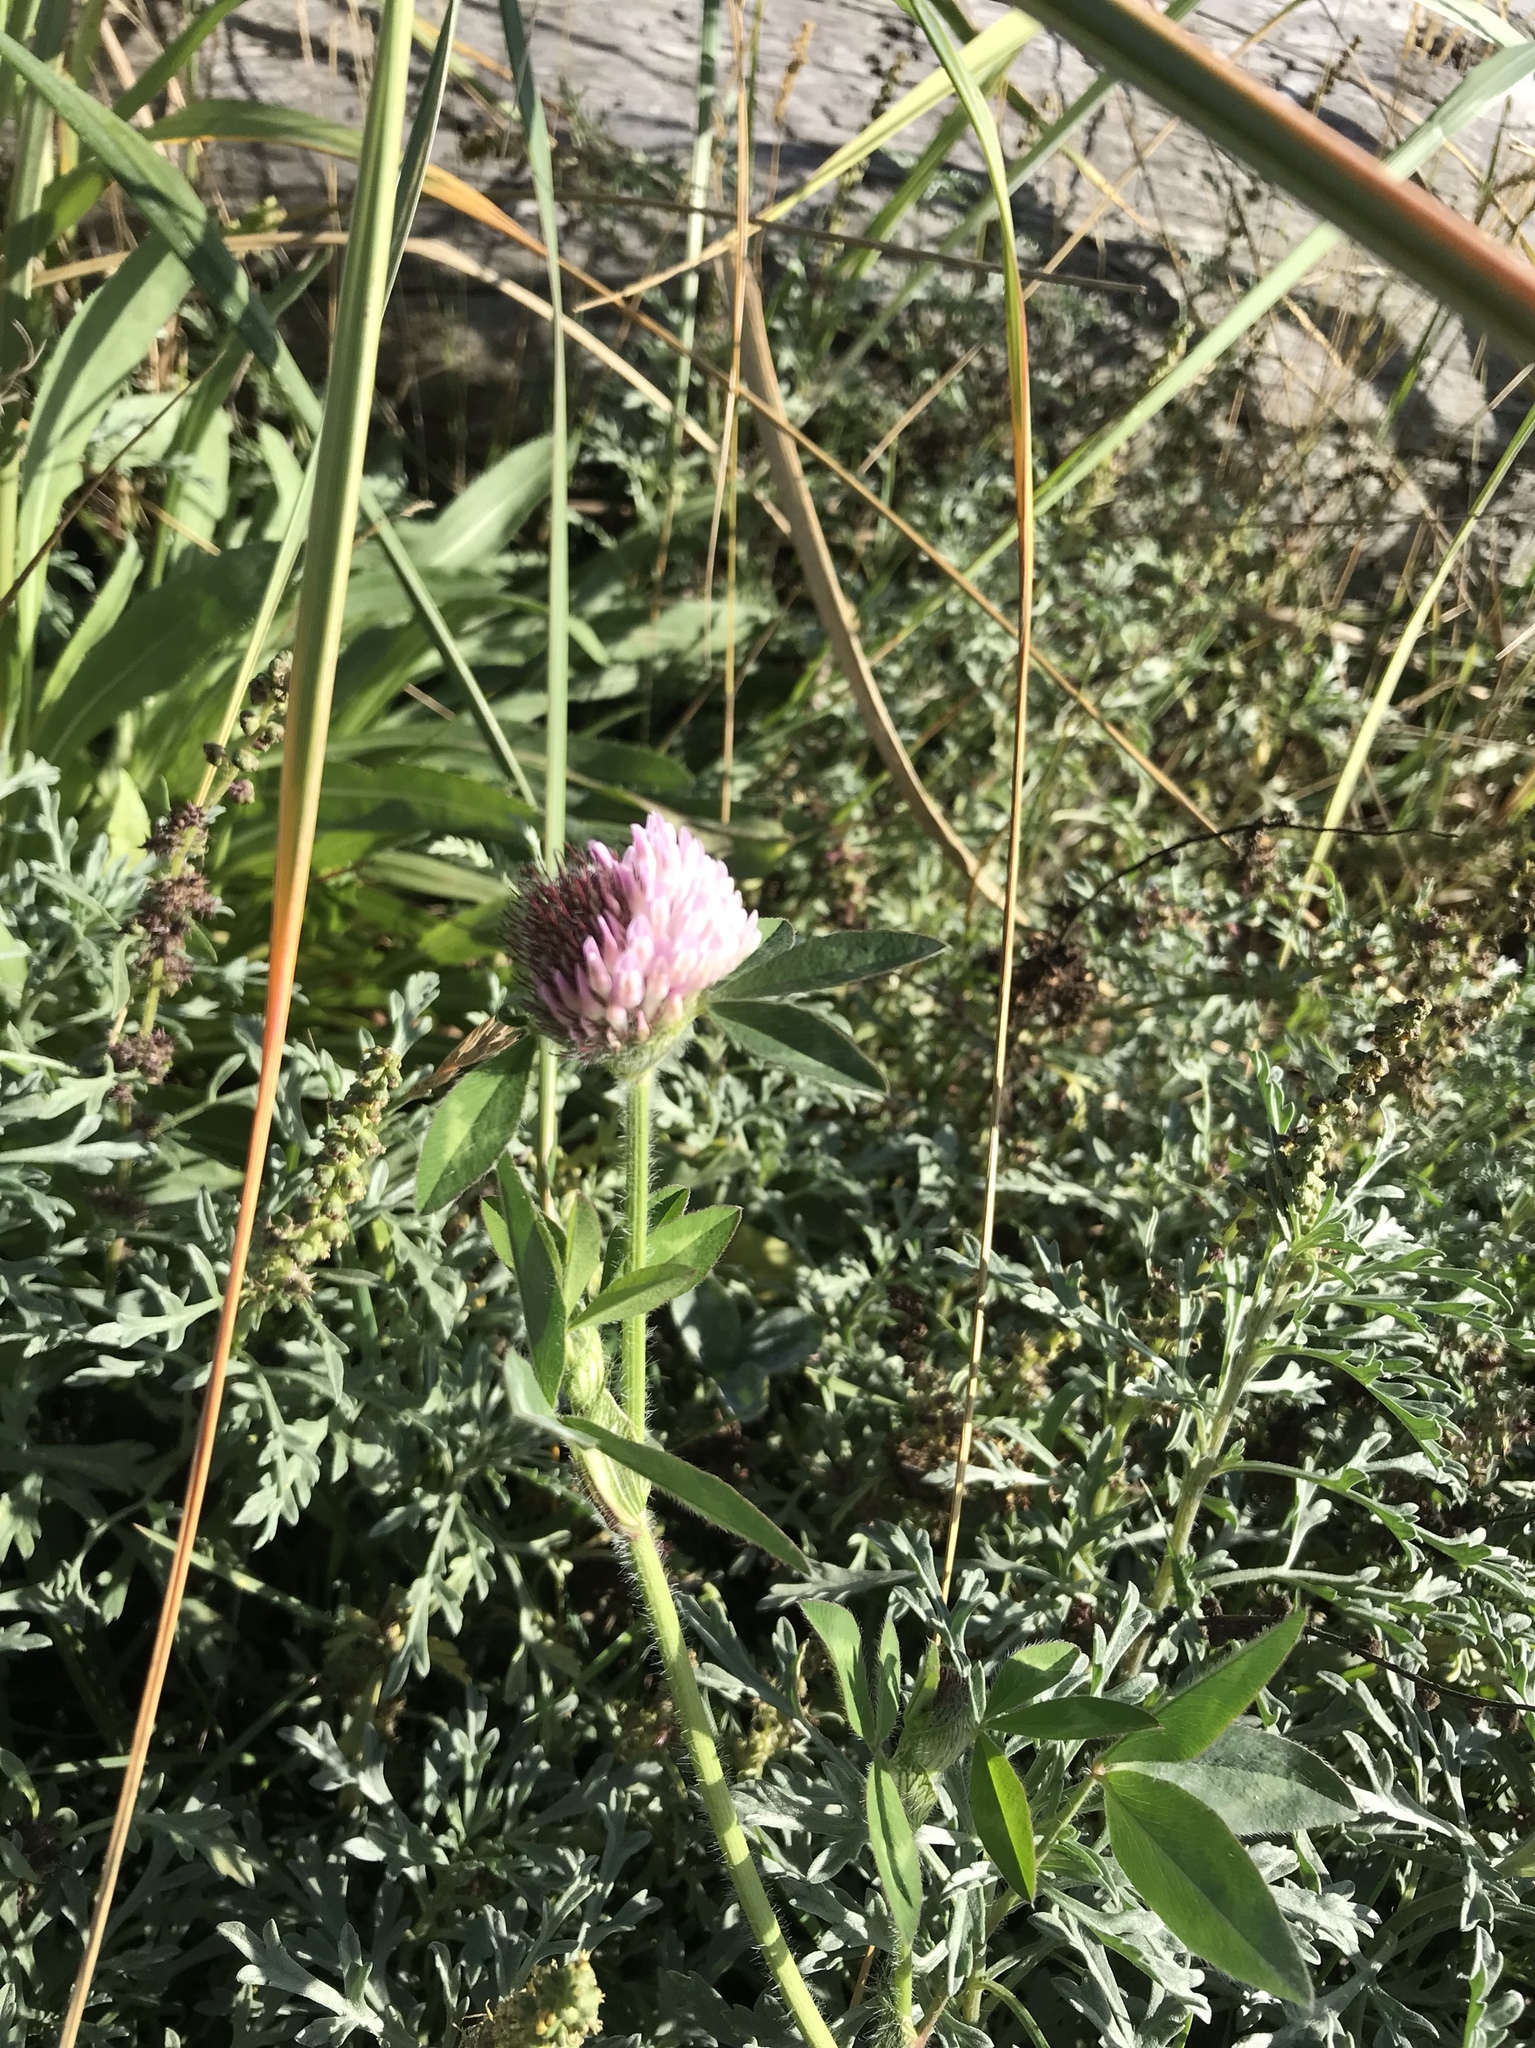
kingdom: Plantae
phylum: Tracheophyta
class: Magnoliopsida
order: Fabales
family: Fabaceae
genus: Trifolium
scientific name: Trifolium pratense
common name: Red clover
